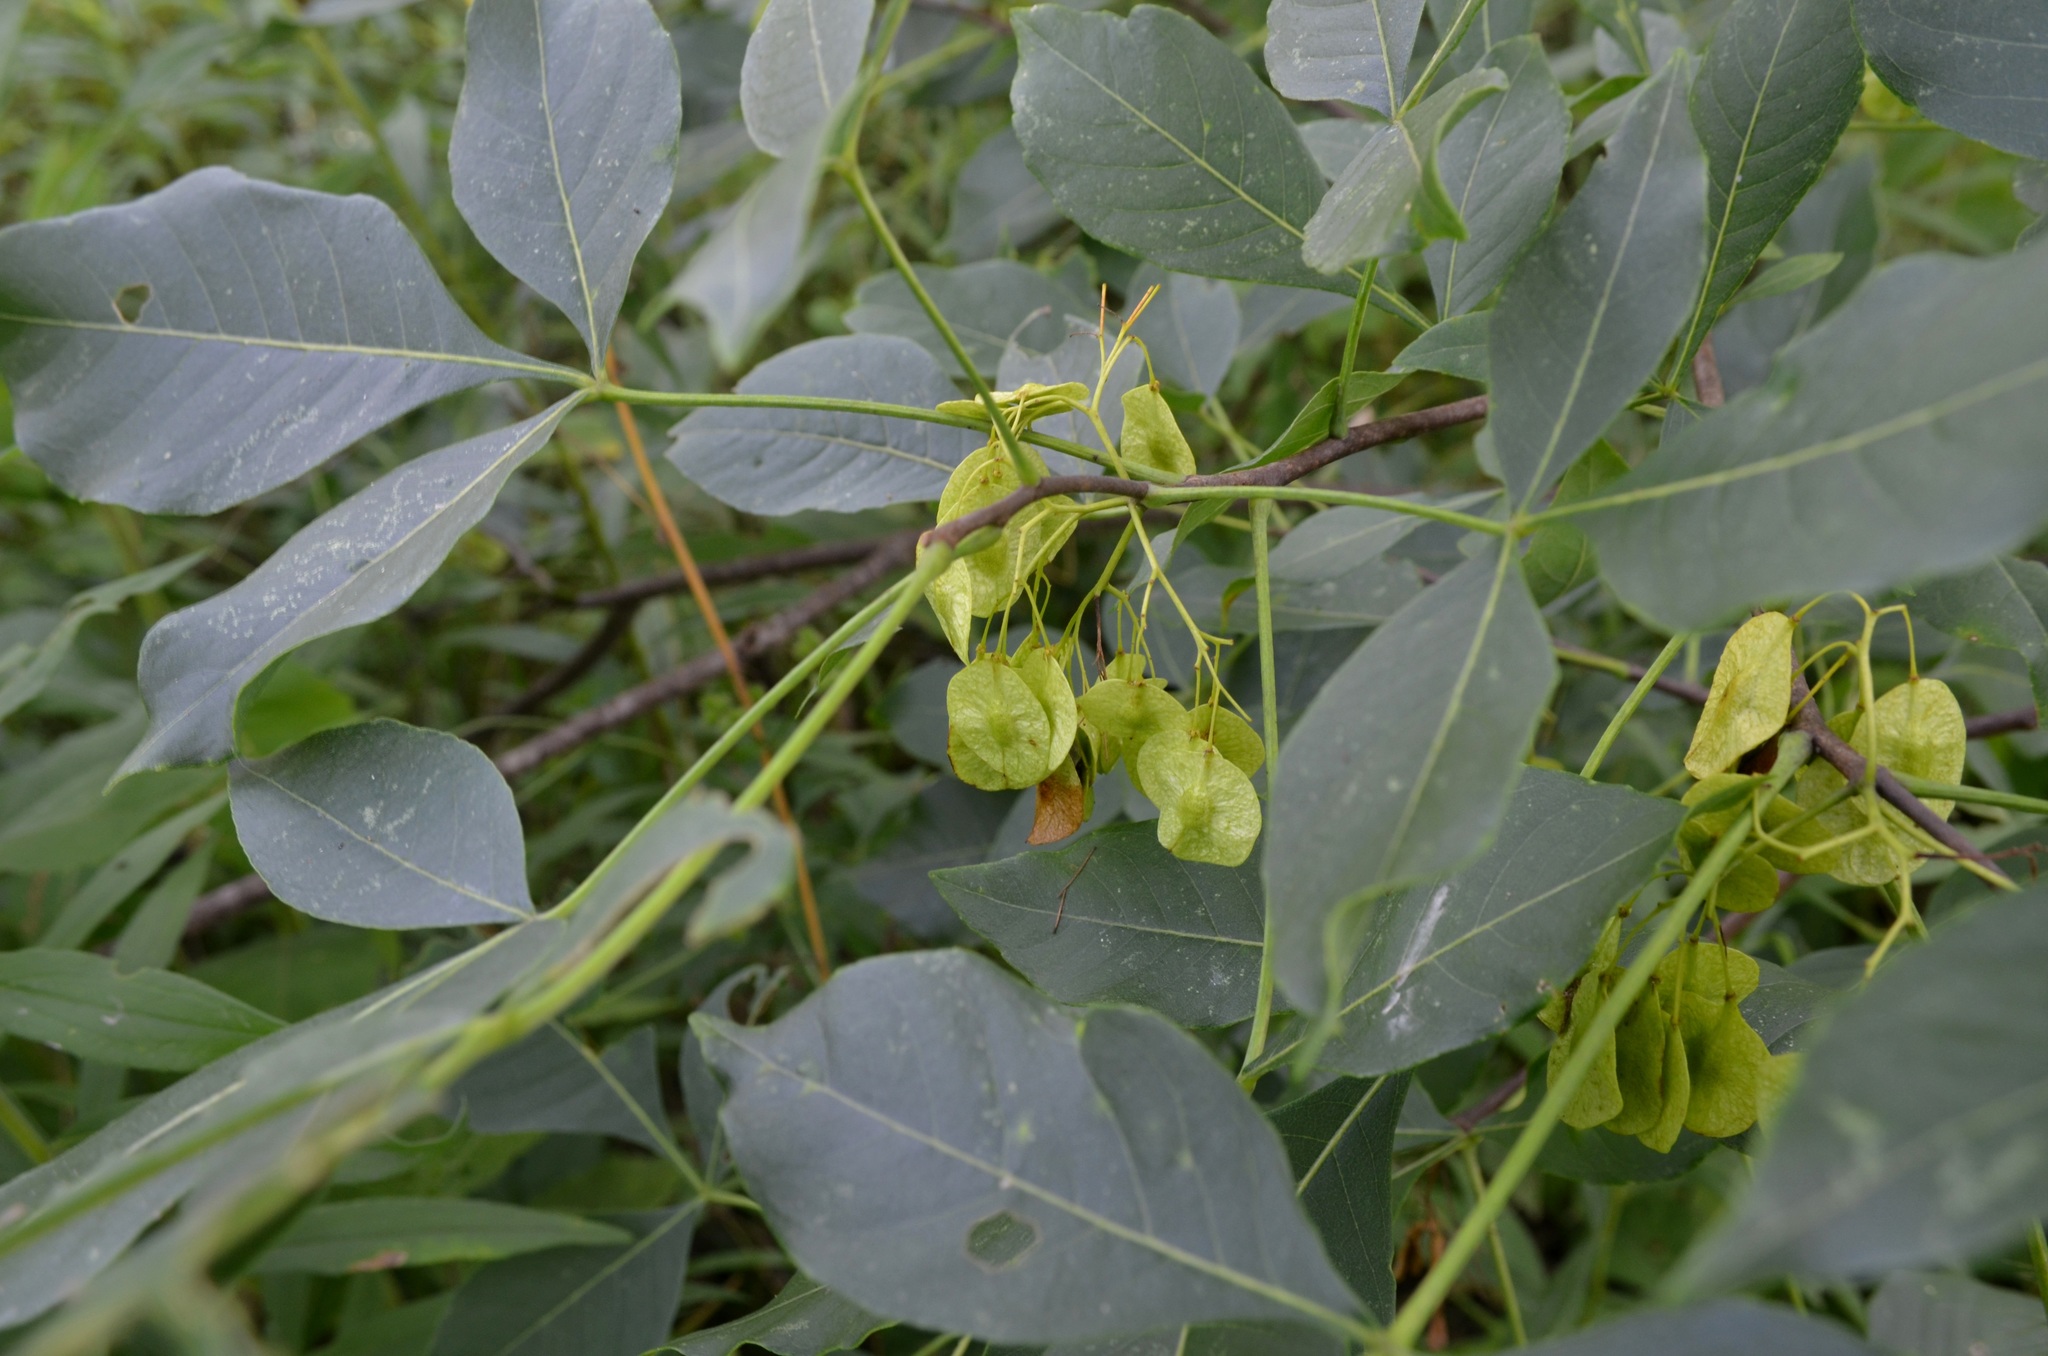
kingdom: Plantae
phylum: Tracheophyta
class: Magnoliopsida
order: Sapindales
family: Rutaceae
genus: Ptelea
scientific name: Ptelea trifoliata
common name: Common hop-tree
